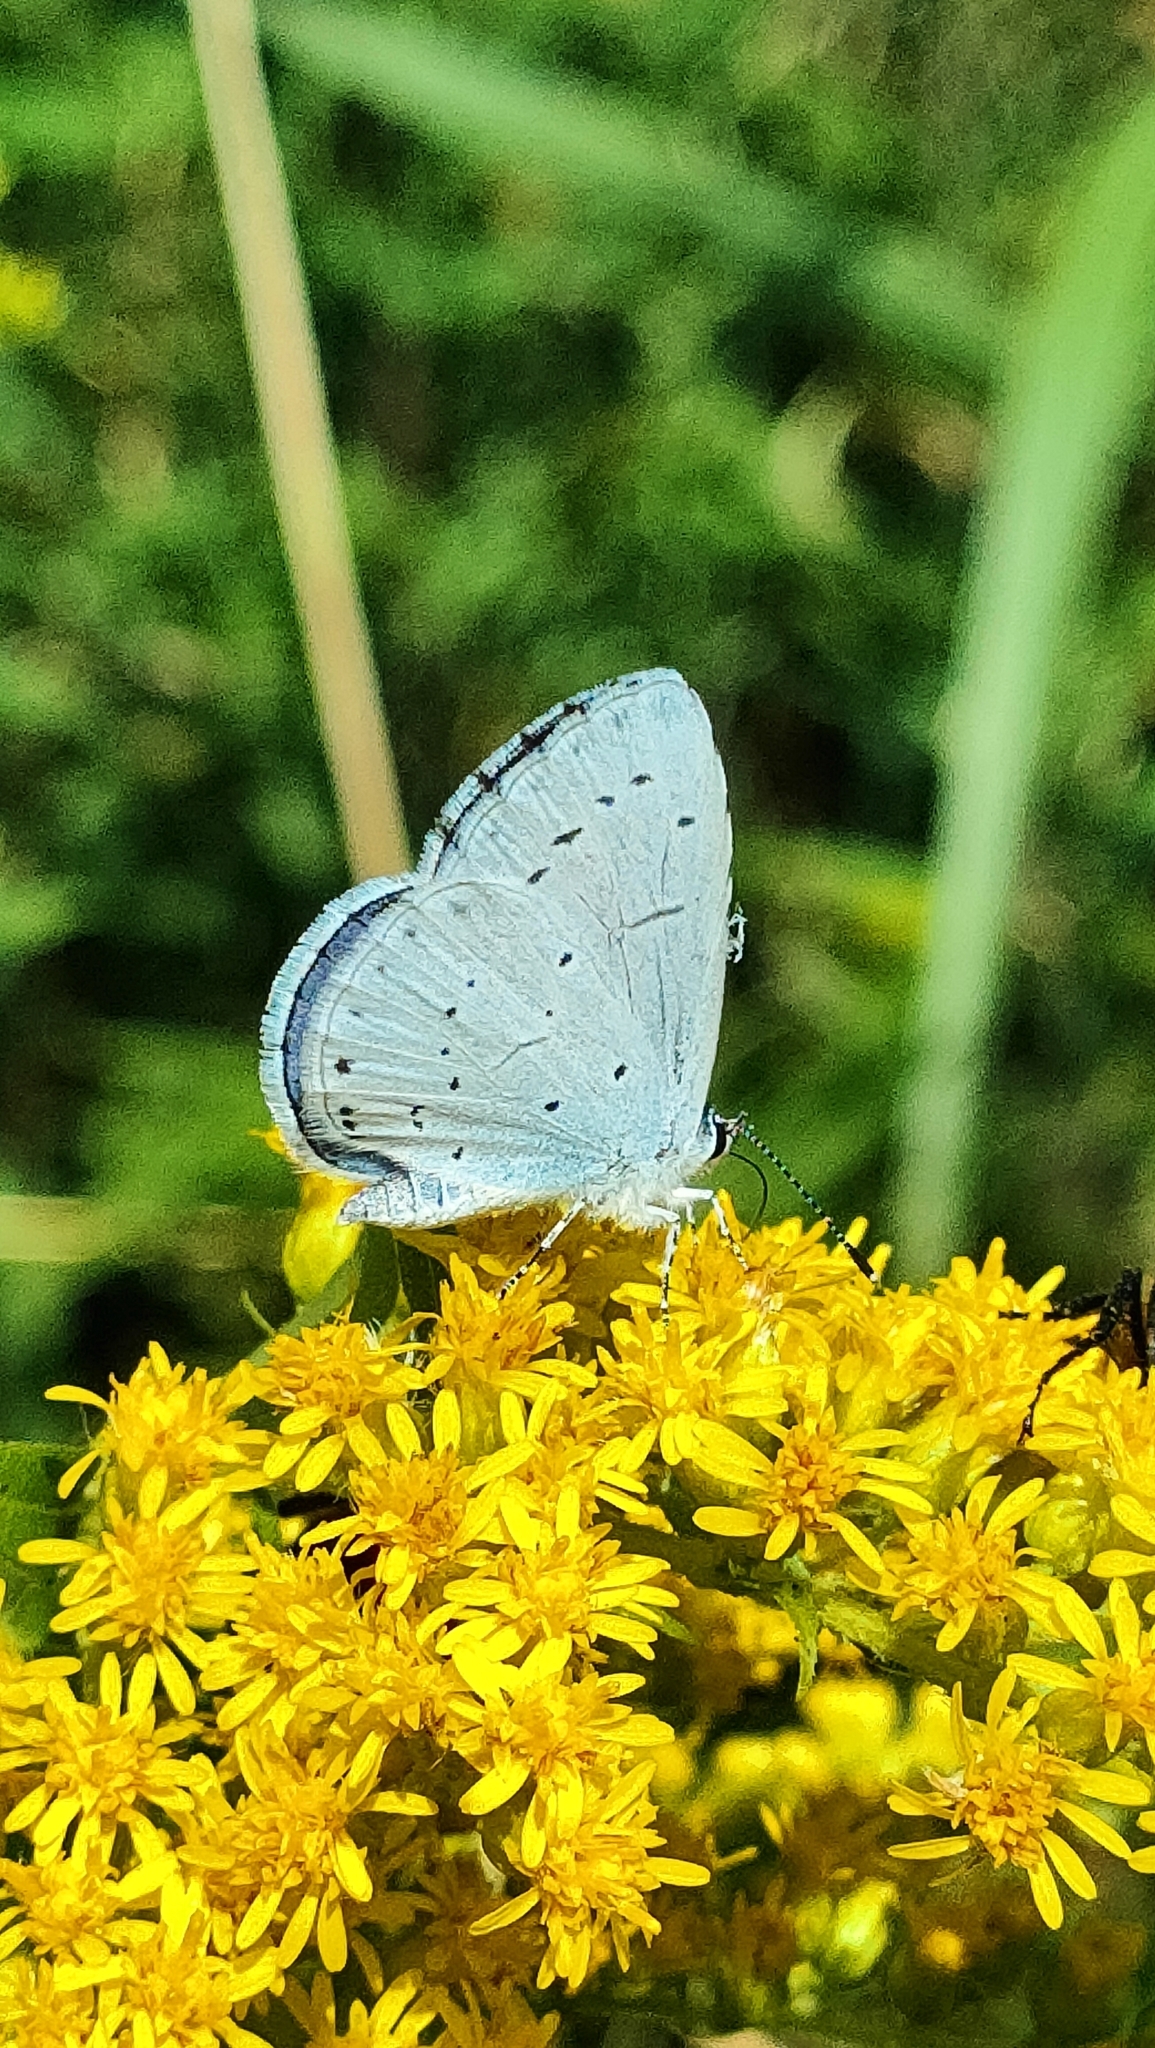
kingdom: Animalia
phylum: Arthropoda
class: Insecta
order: Lepidoptera
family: Lycaenidae
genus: Celastrina
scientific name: Celastrina argiolus
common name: Holly blue
